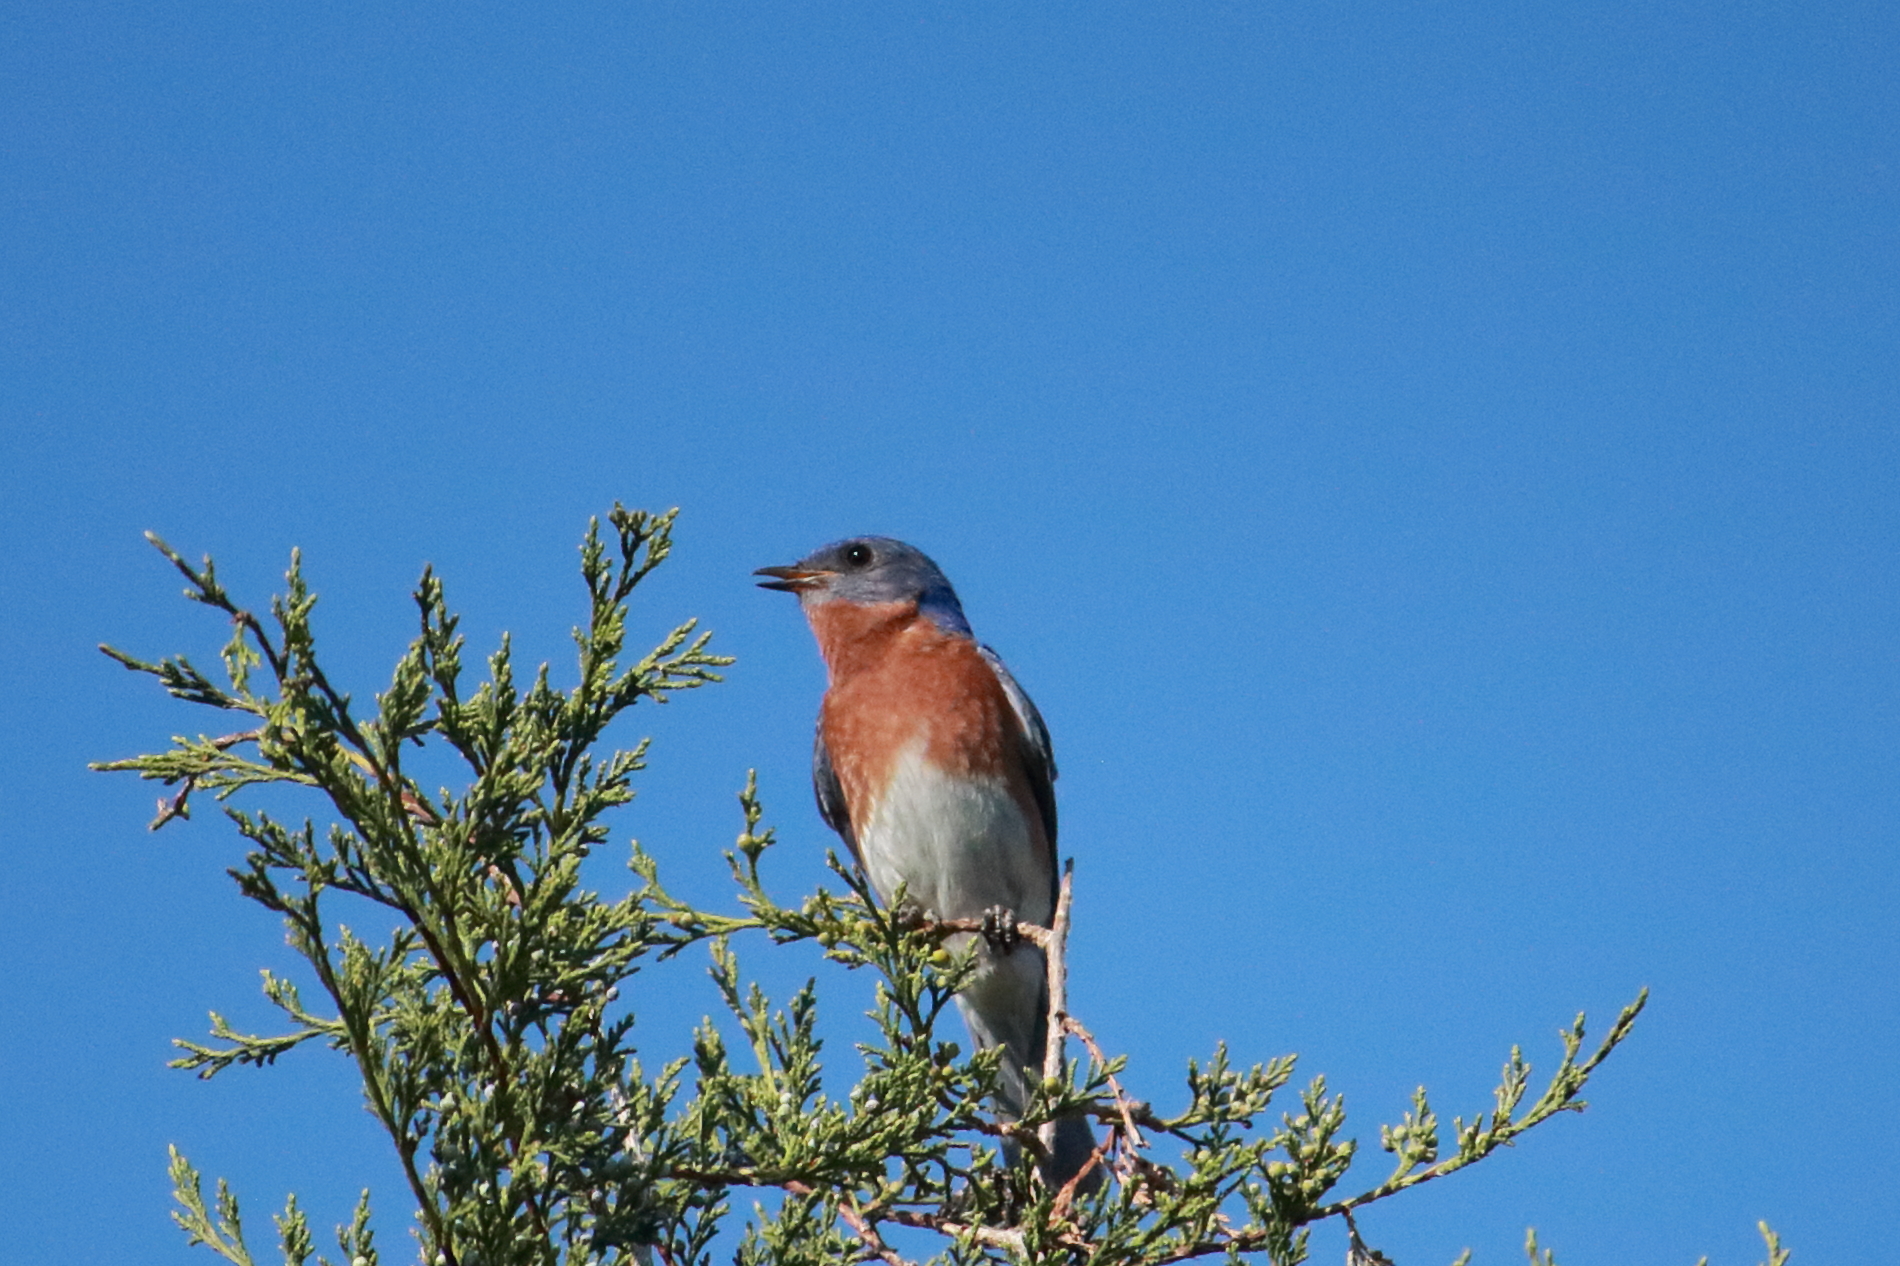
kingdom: Animalia
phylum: Chordata
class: Aves
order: Passeriformes
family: Turdidae
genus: Sialia
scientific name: Sialia sialis
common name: Eastern bluebird
